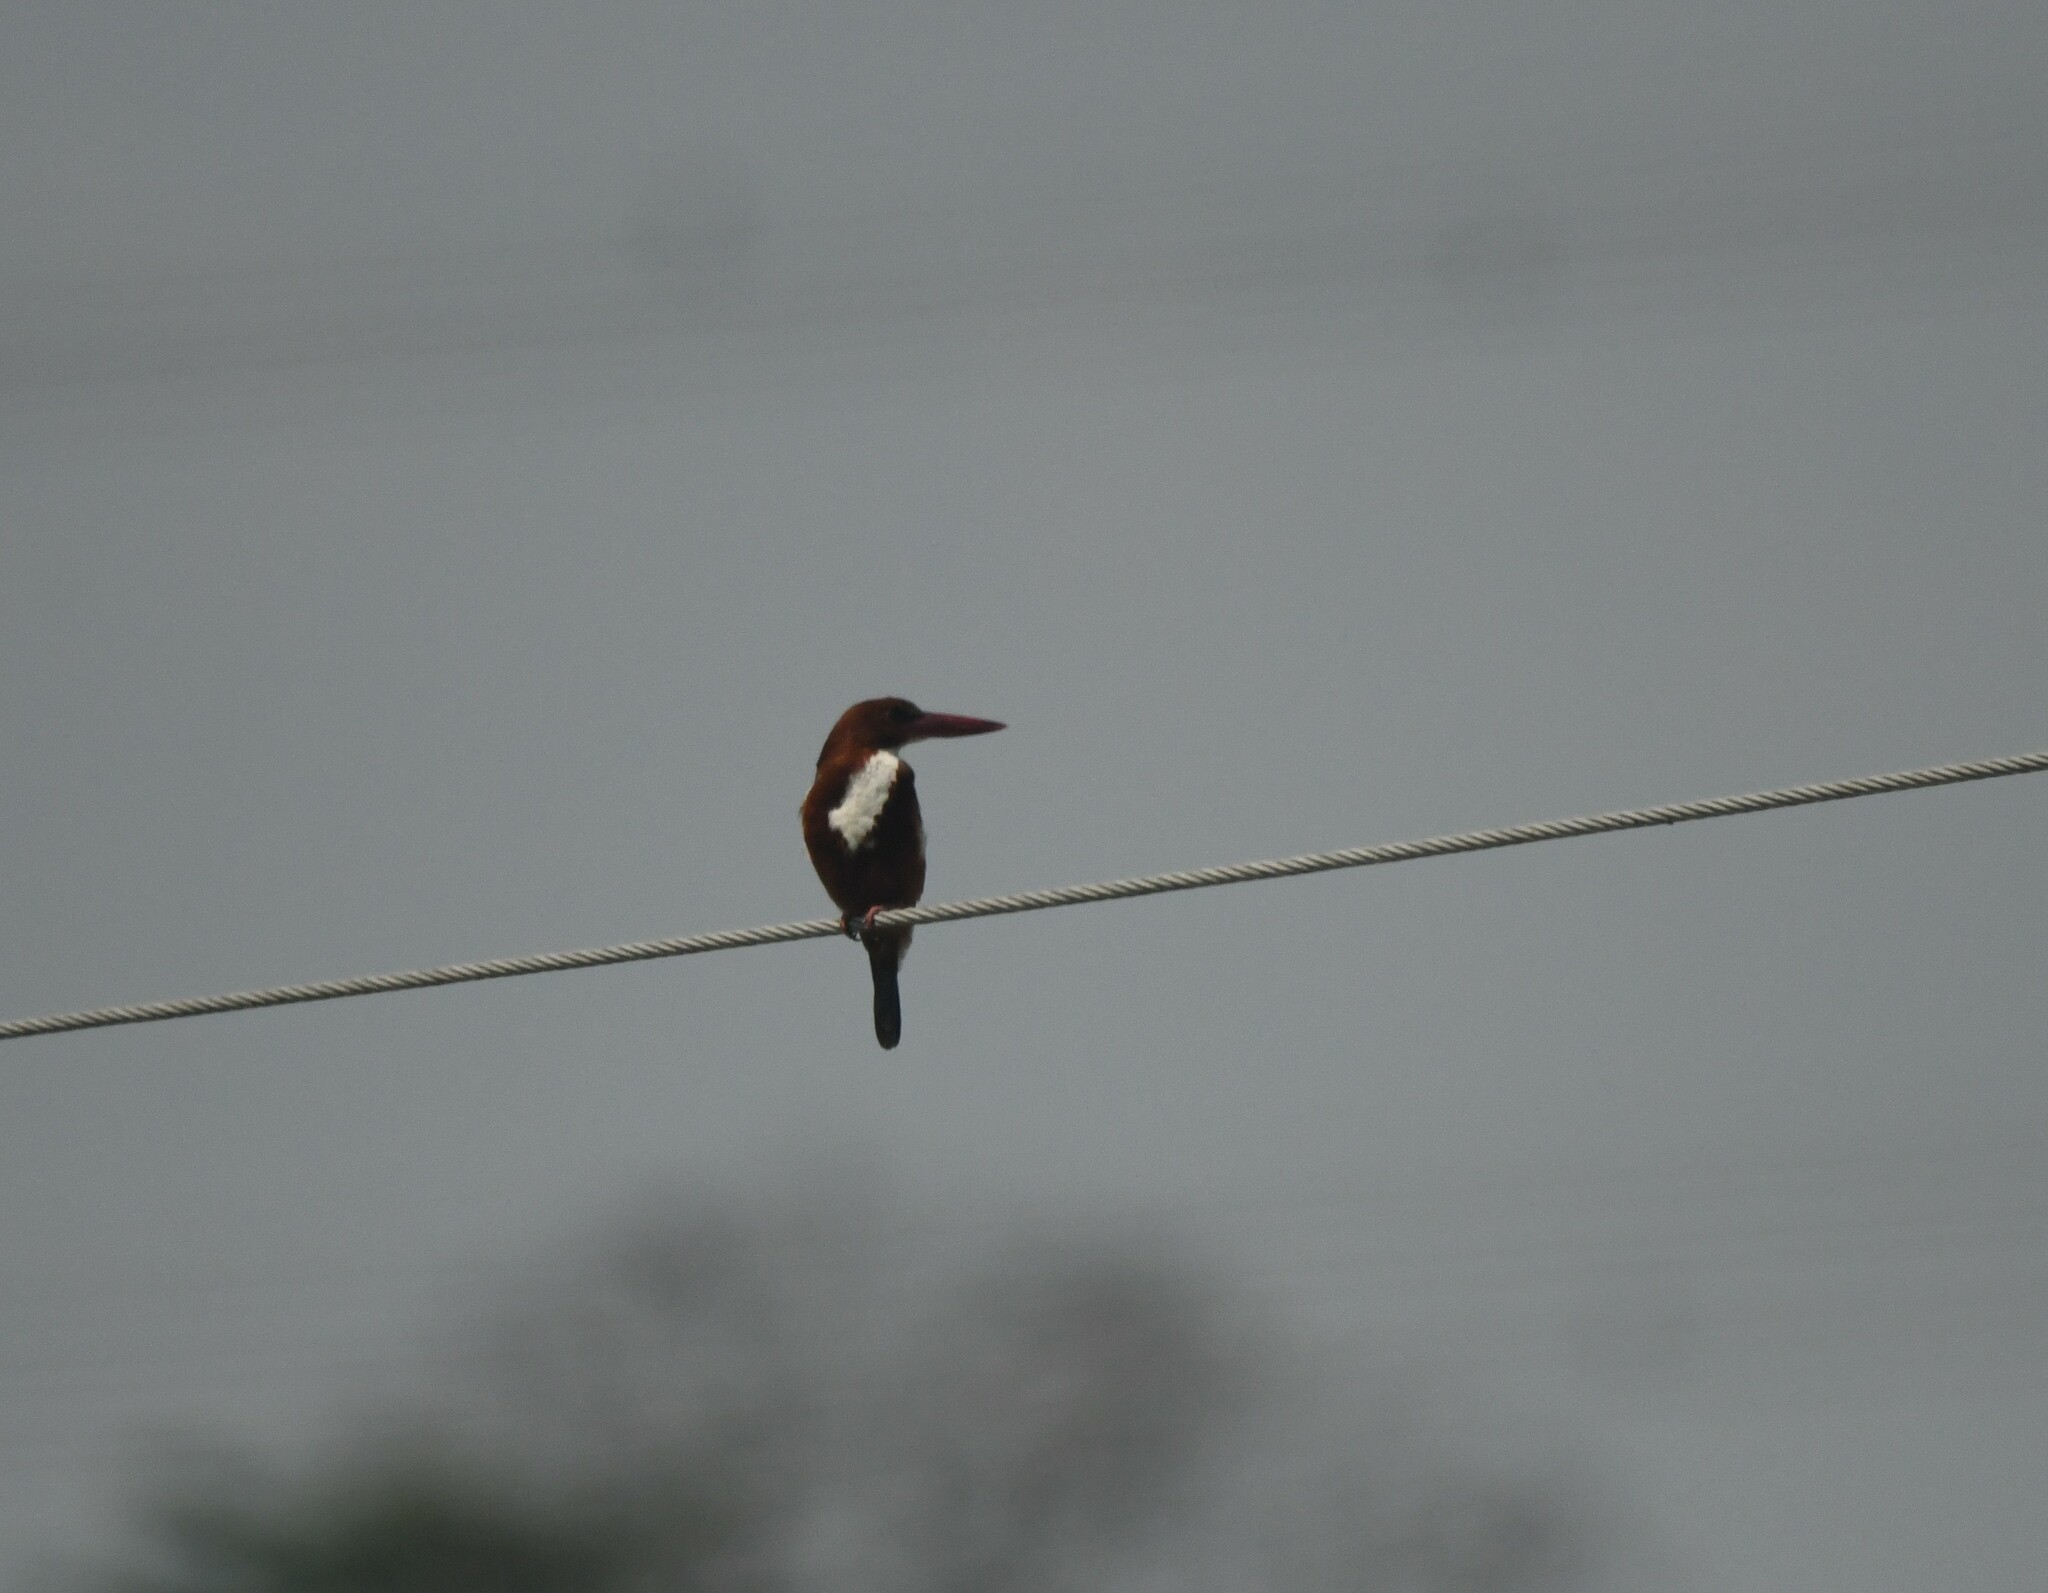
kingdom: Animalia
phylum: Chordata
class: Aves
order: Coraciiformes
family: Alcedinidae
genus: Halcyon
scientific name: Halcyon smyrnensis
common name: White-throated kingfisher
